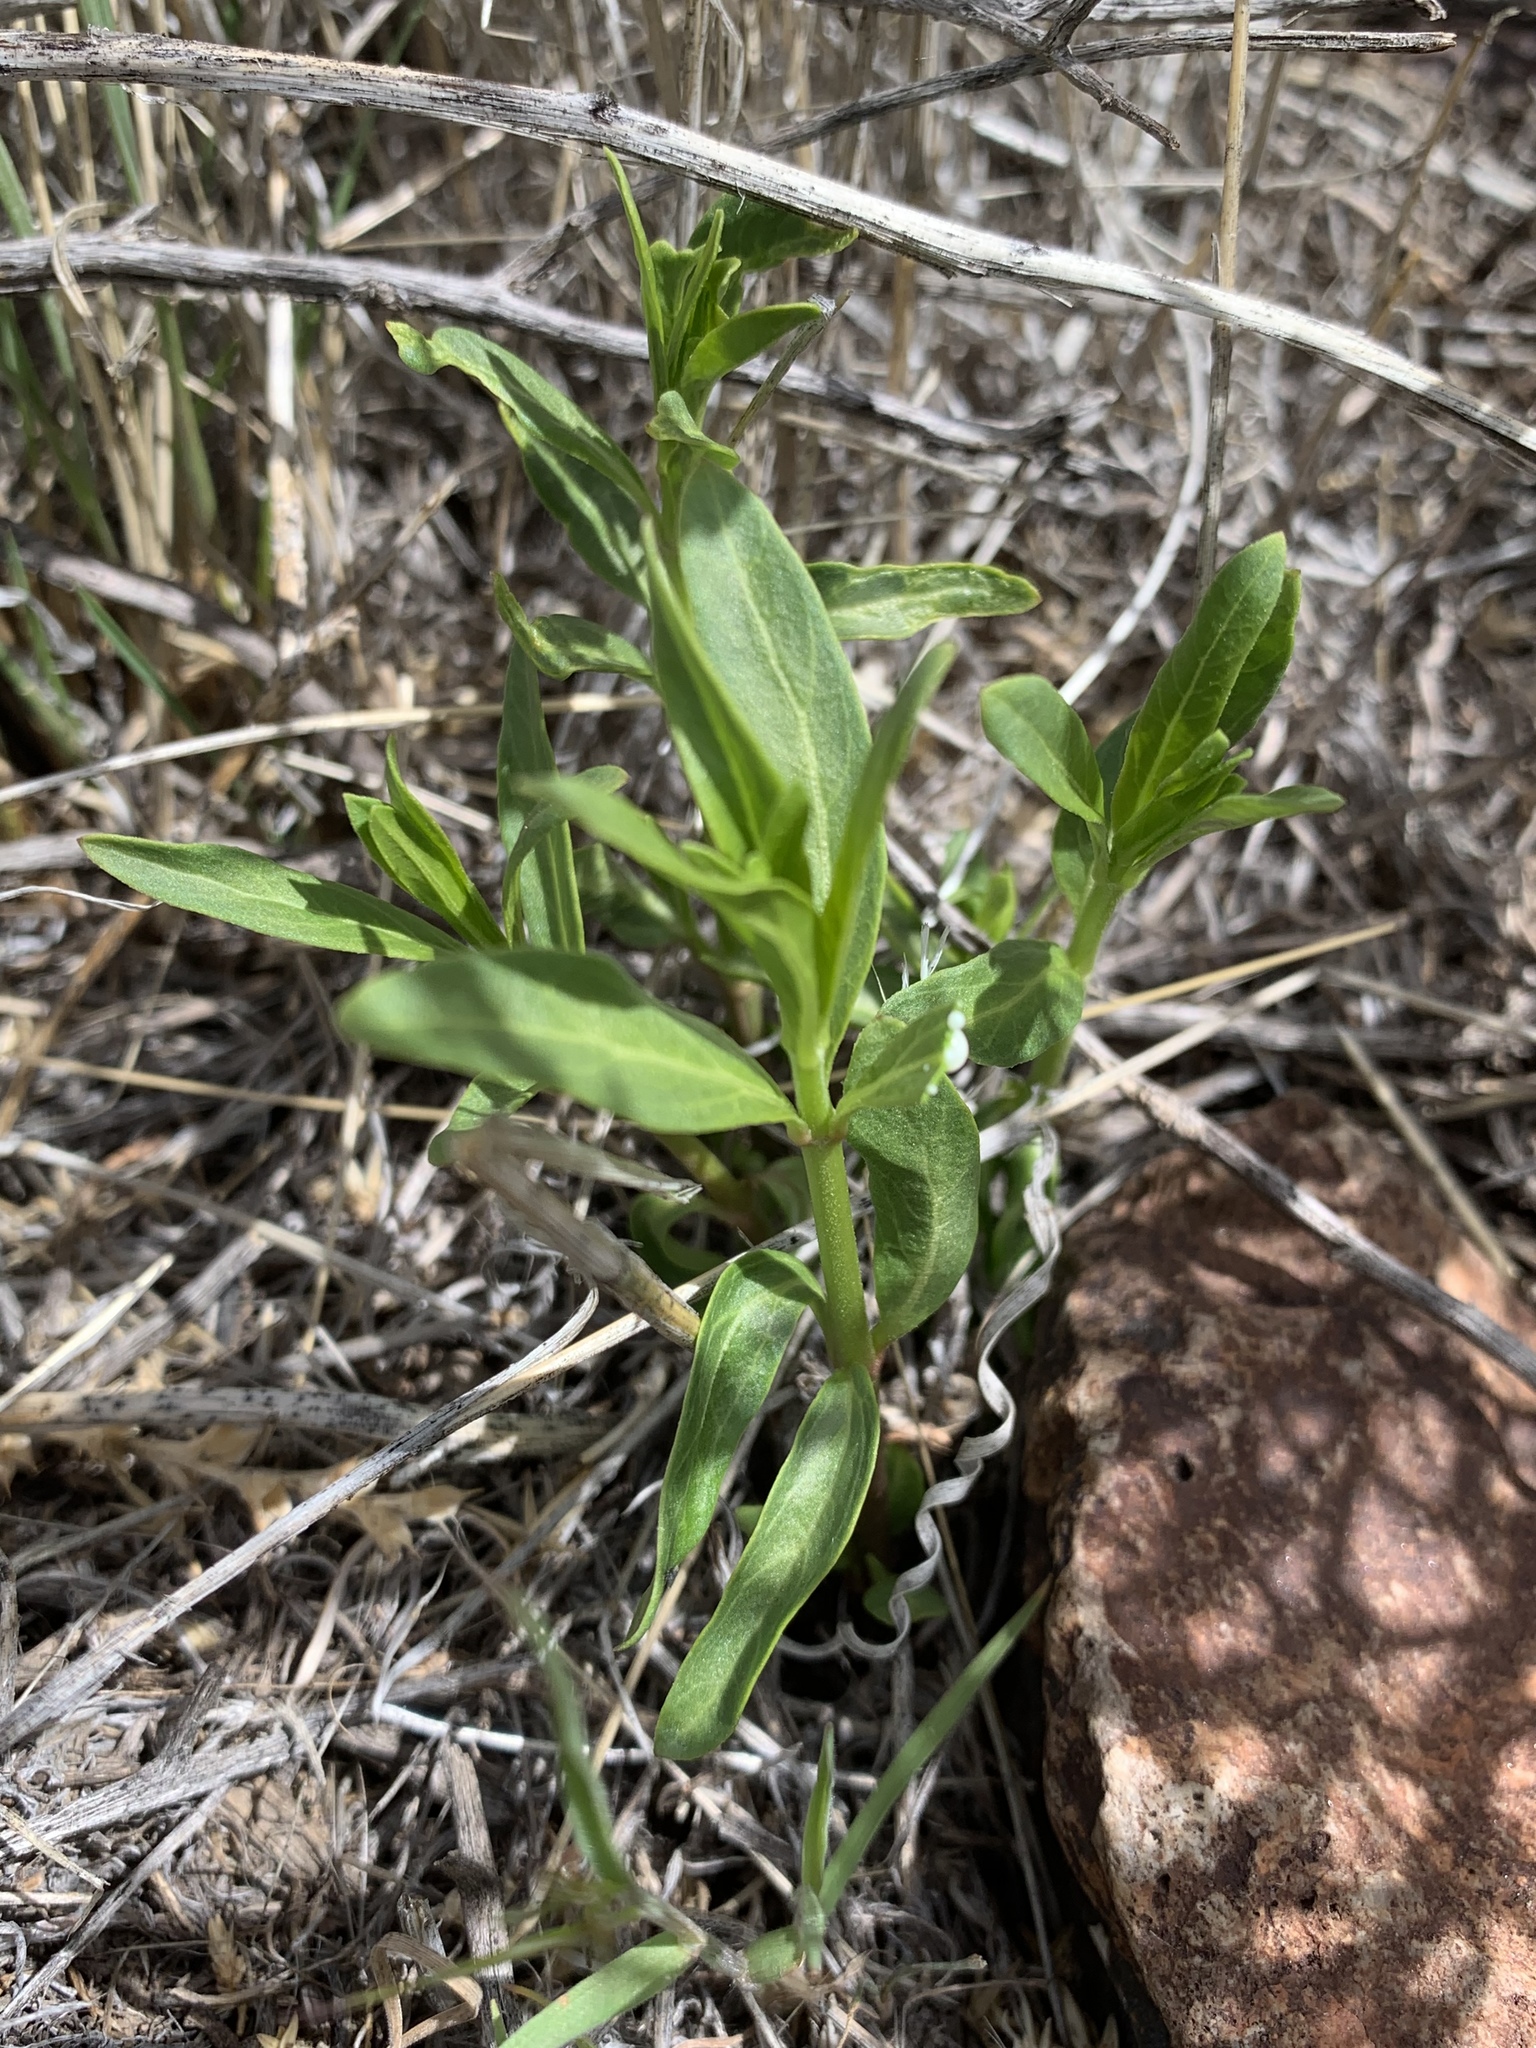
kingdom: Plantae
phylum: Tracheophyta
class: Magnoliopsida
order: Gentianales
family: Apocynaceae
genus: Asclepias
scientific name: Asclepias fascicularis
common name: Mexican milkweed
